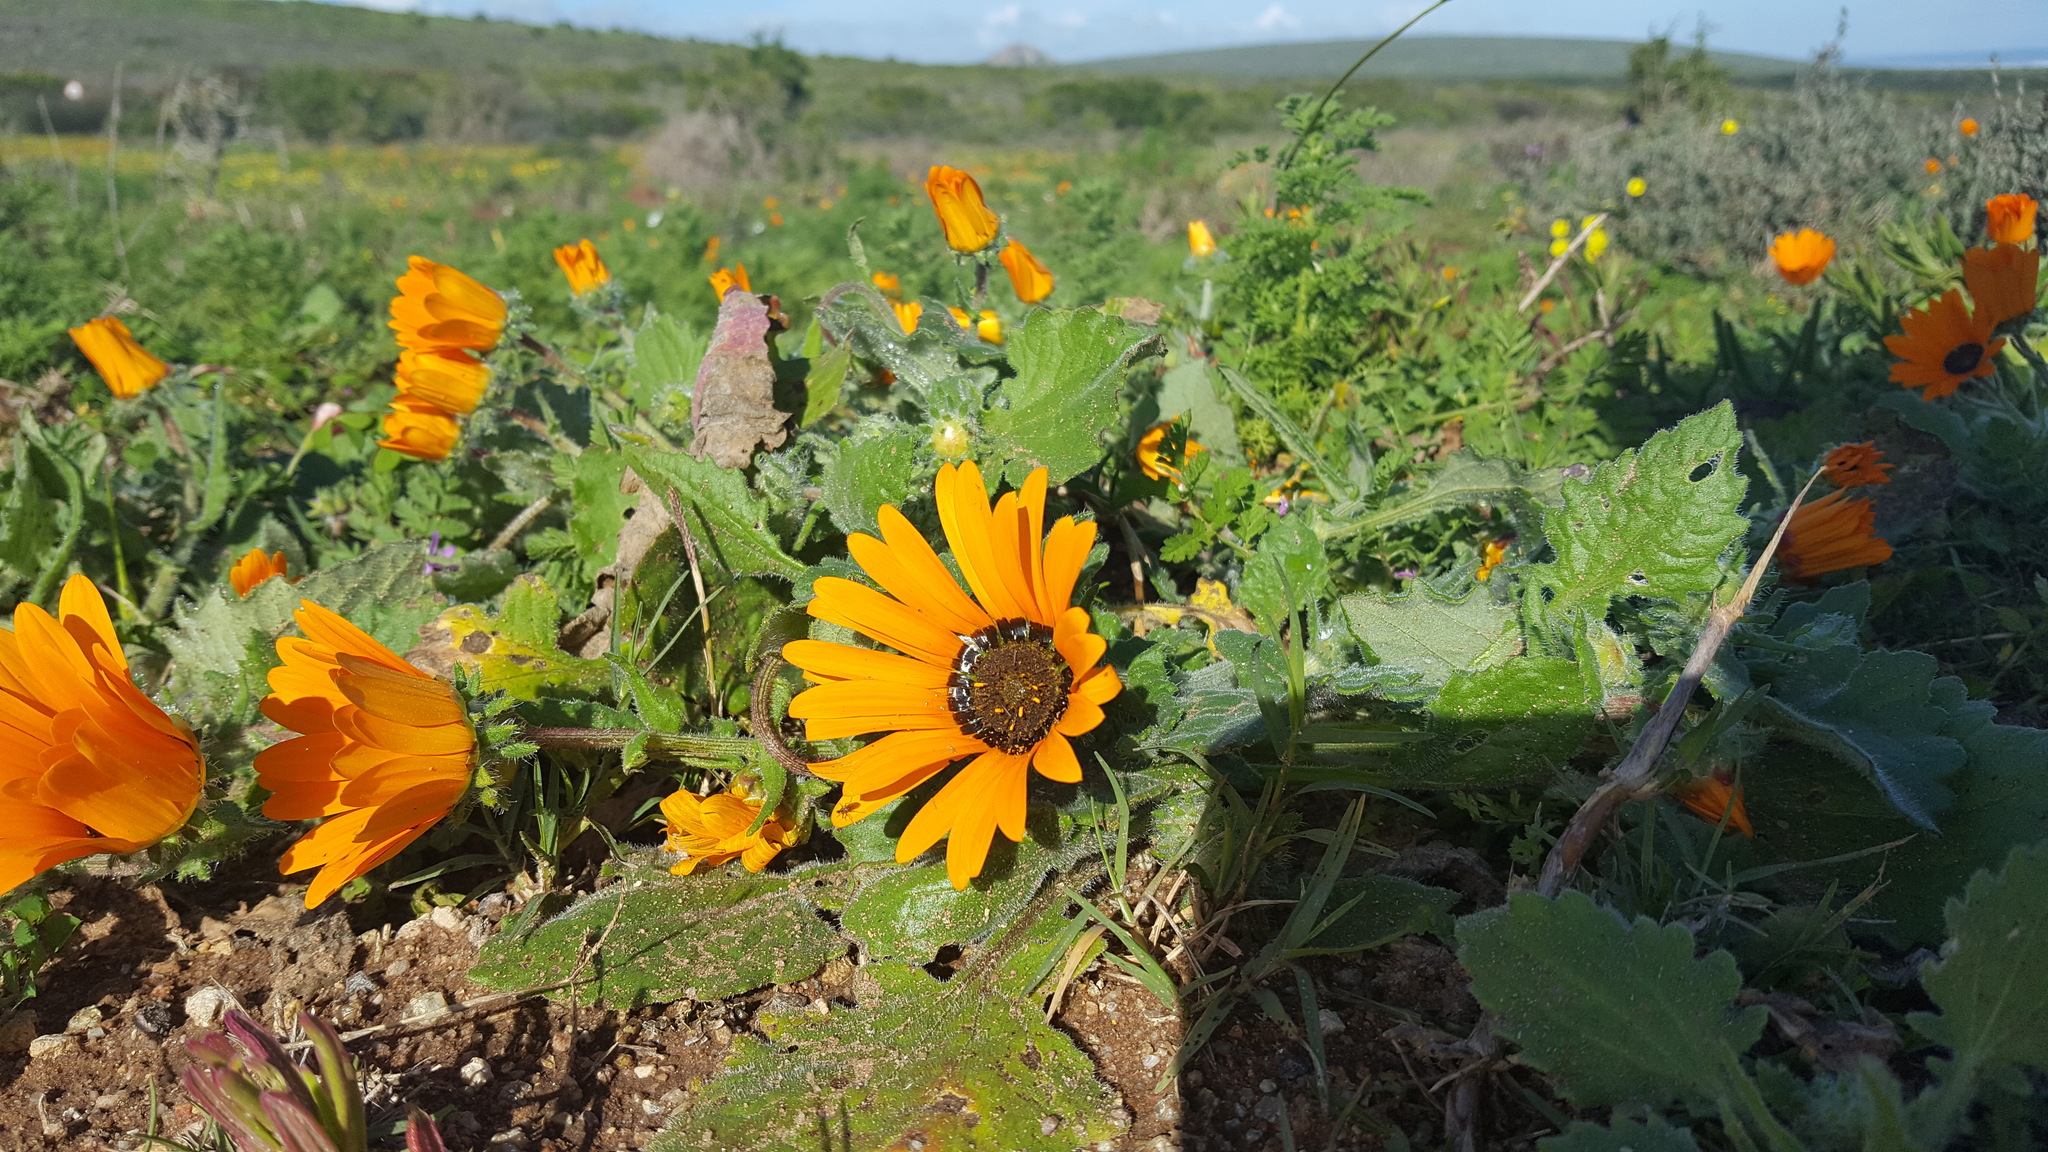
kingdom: Plantae
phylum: Tracheophyta
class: Magnoliopsida
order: Asterales
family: Asteraceae
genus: Arctotis
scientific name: Arctotis hirsuta
